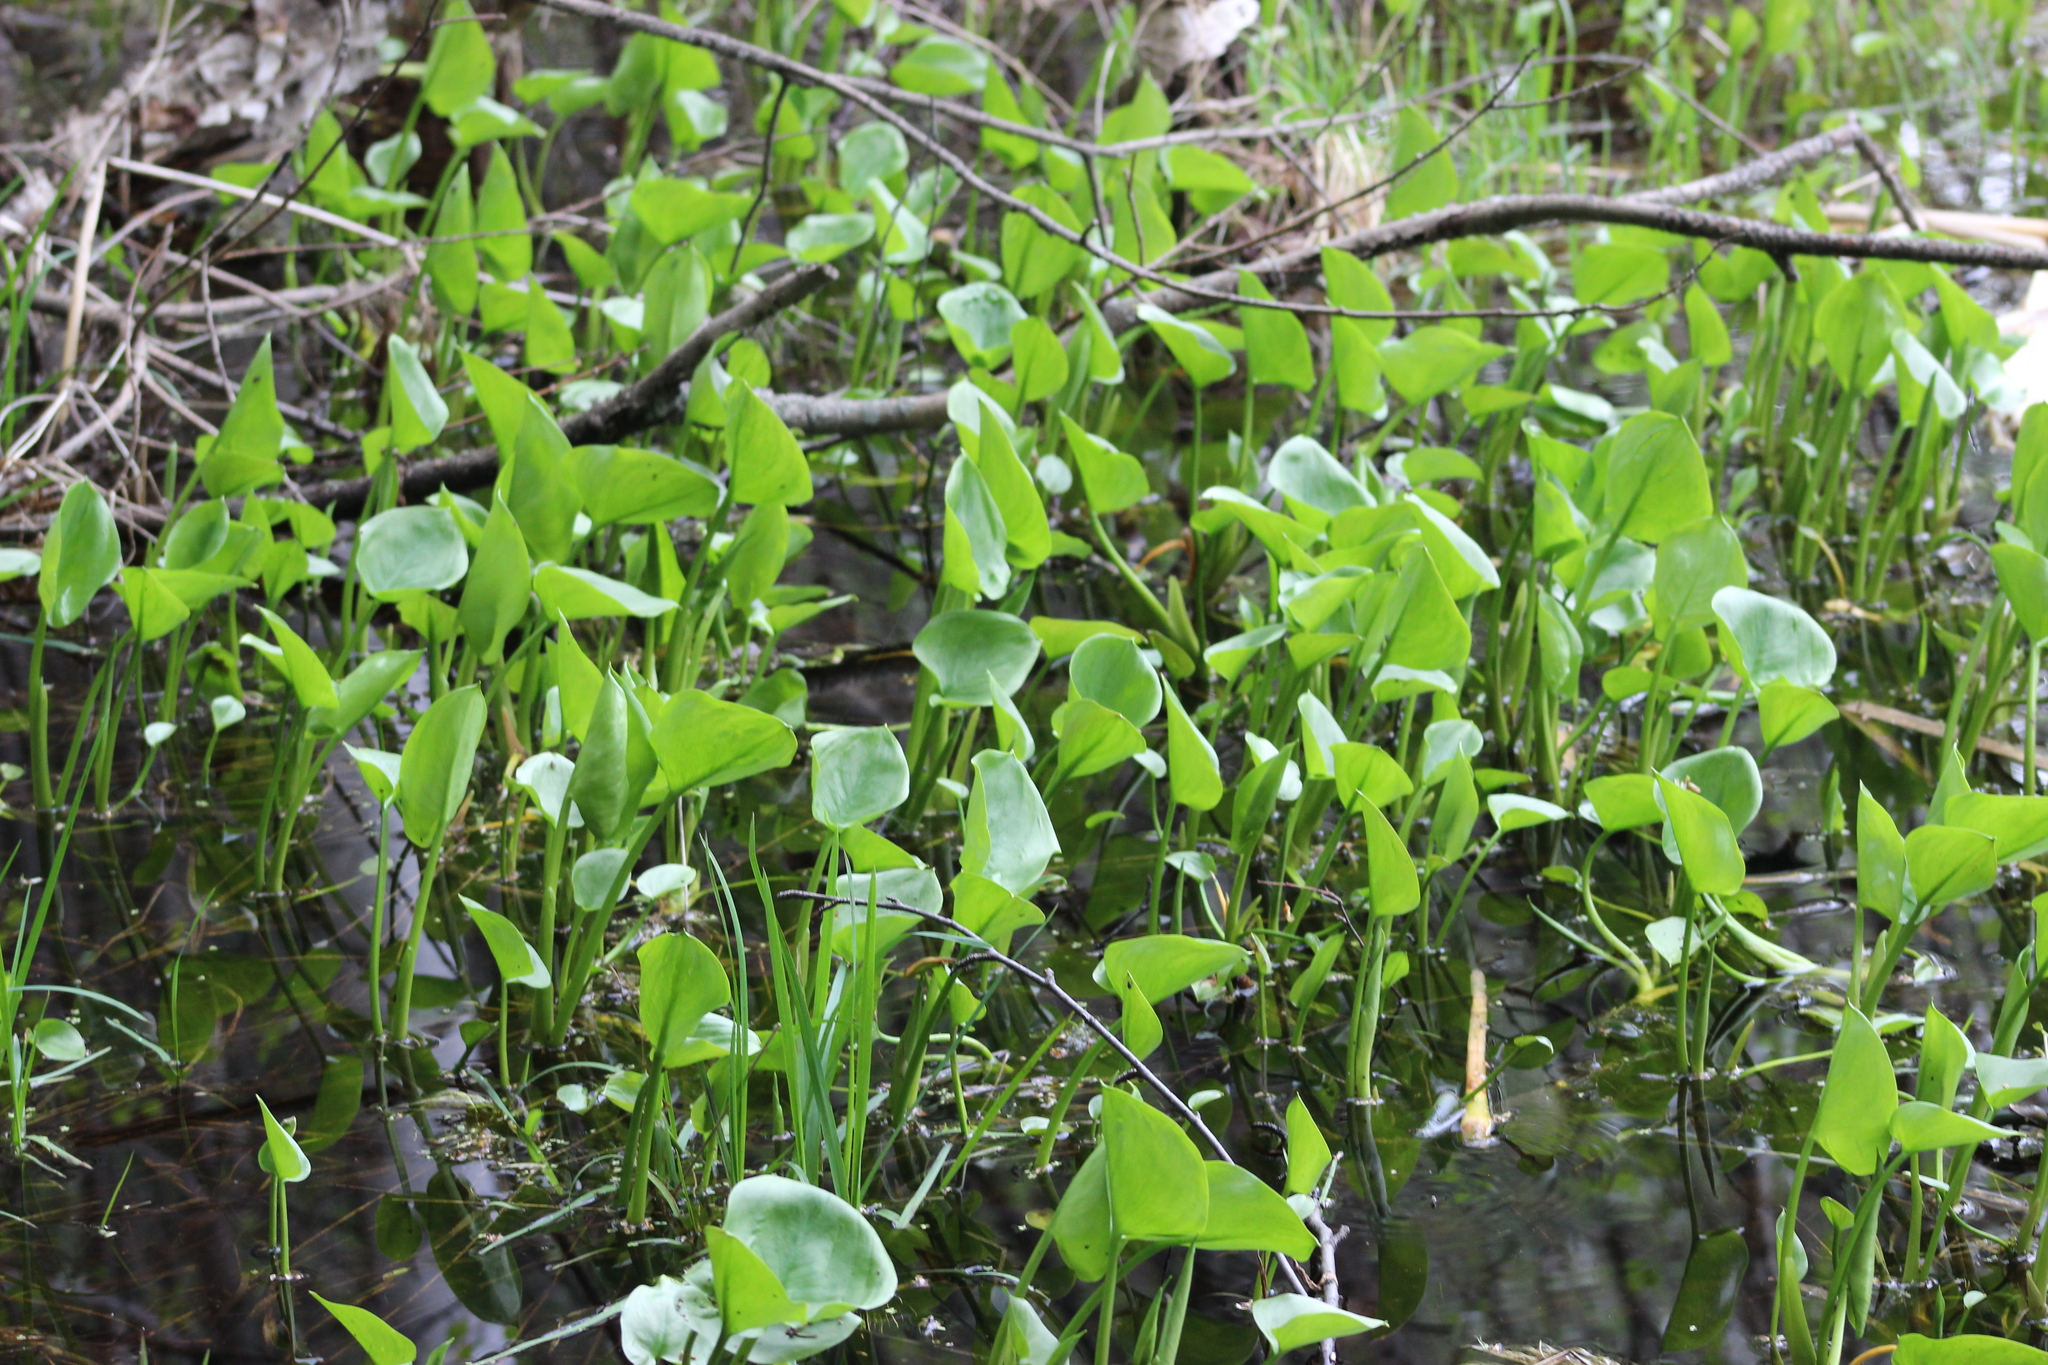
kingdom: Plantae
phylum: Tracheophyta
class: Liliopsida
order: Alismatales
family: Araceae
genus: Calla
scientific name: Calla palustris
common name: Bog arum
